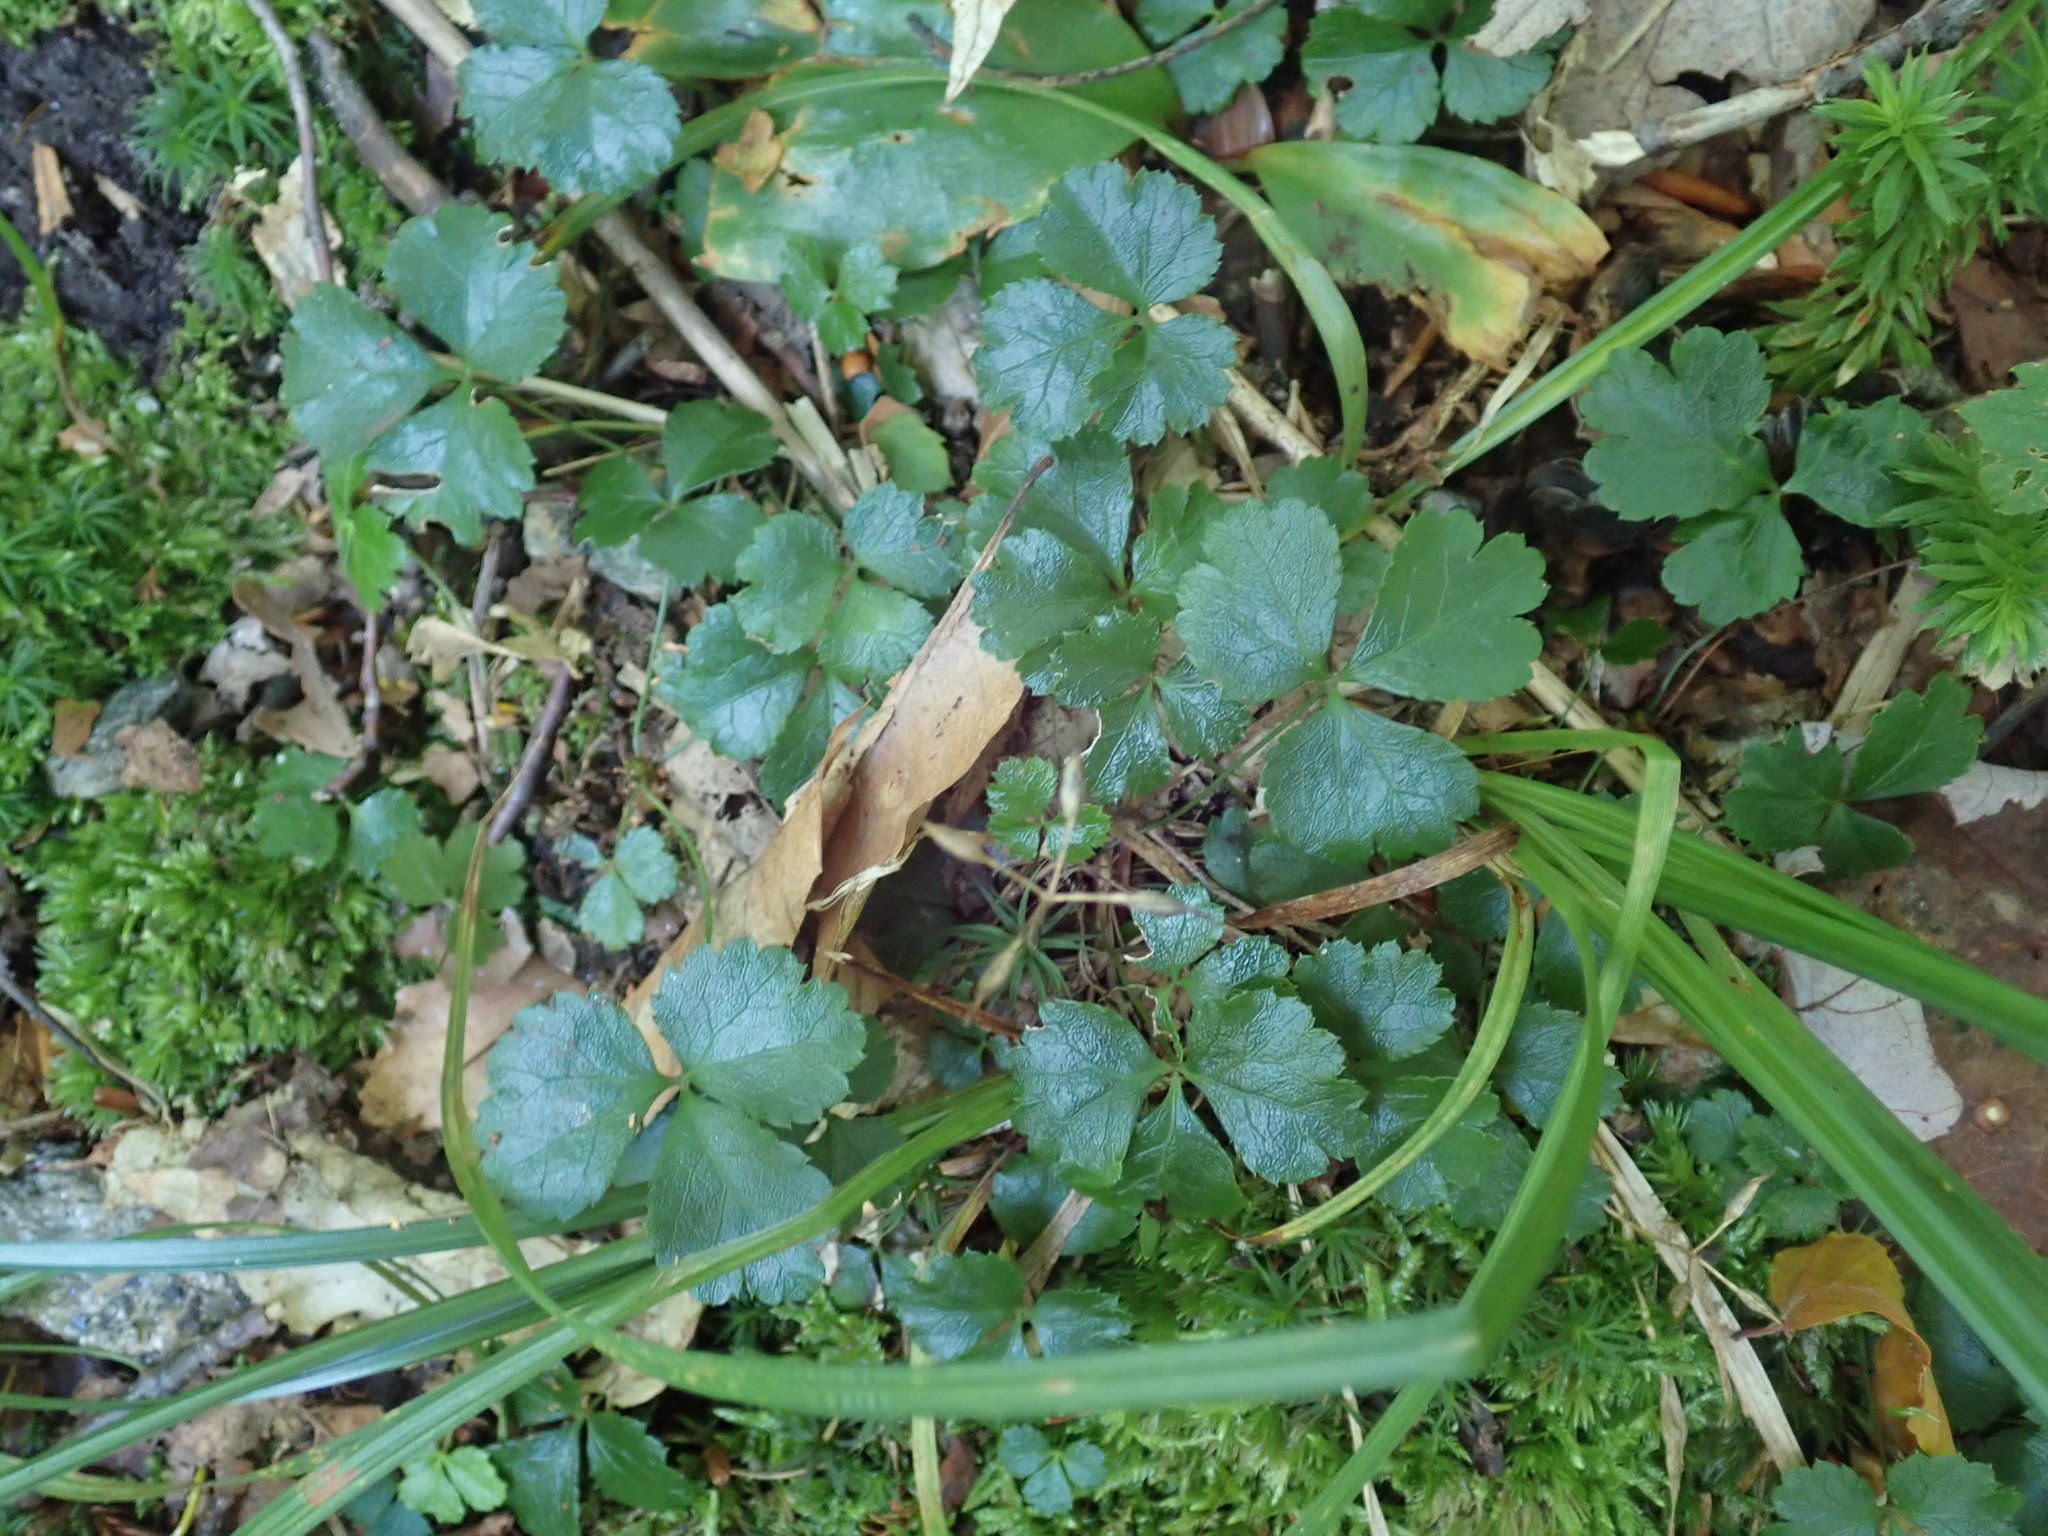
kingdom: Plantae
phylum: Tracheophyta
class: Magnoliopsida
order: Ranunculales
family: Ranunculaceae
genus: Coptis
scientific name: Coptis trifolia
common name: Canker-root
